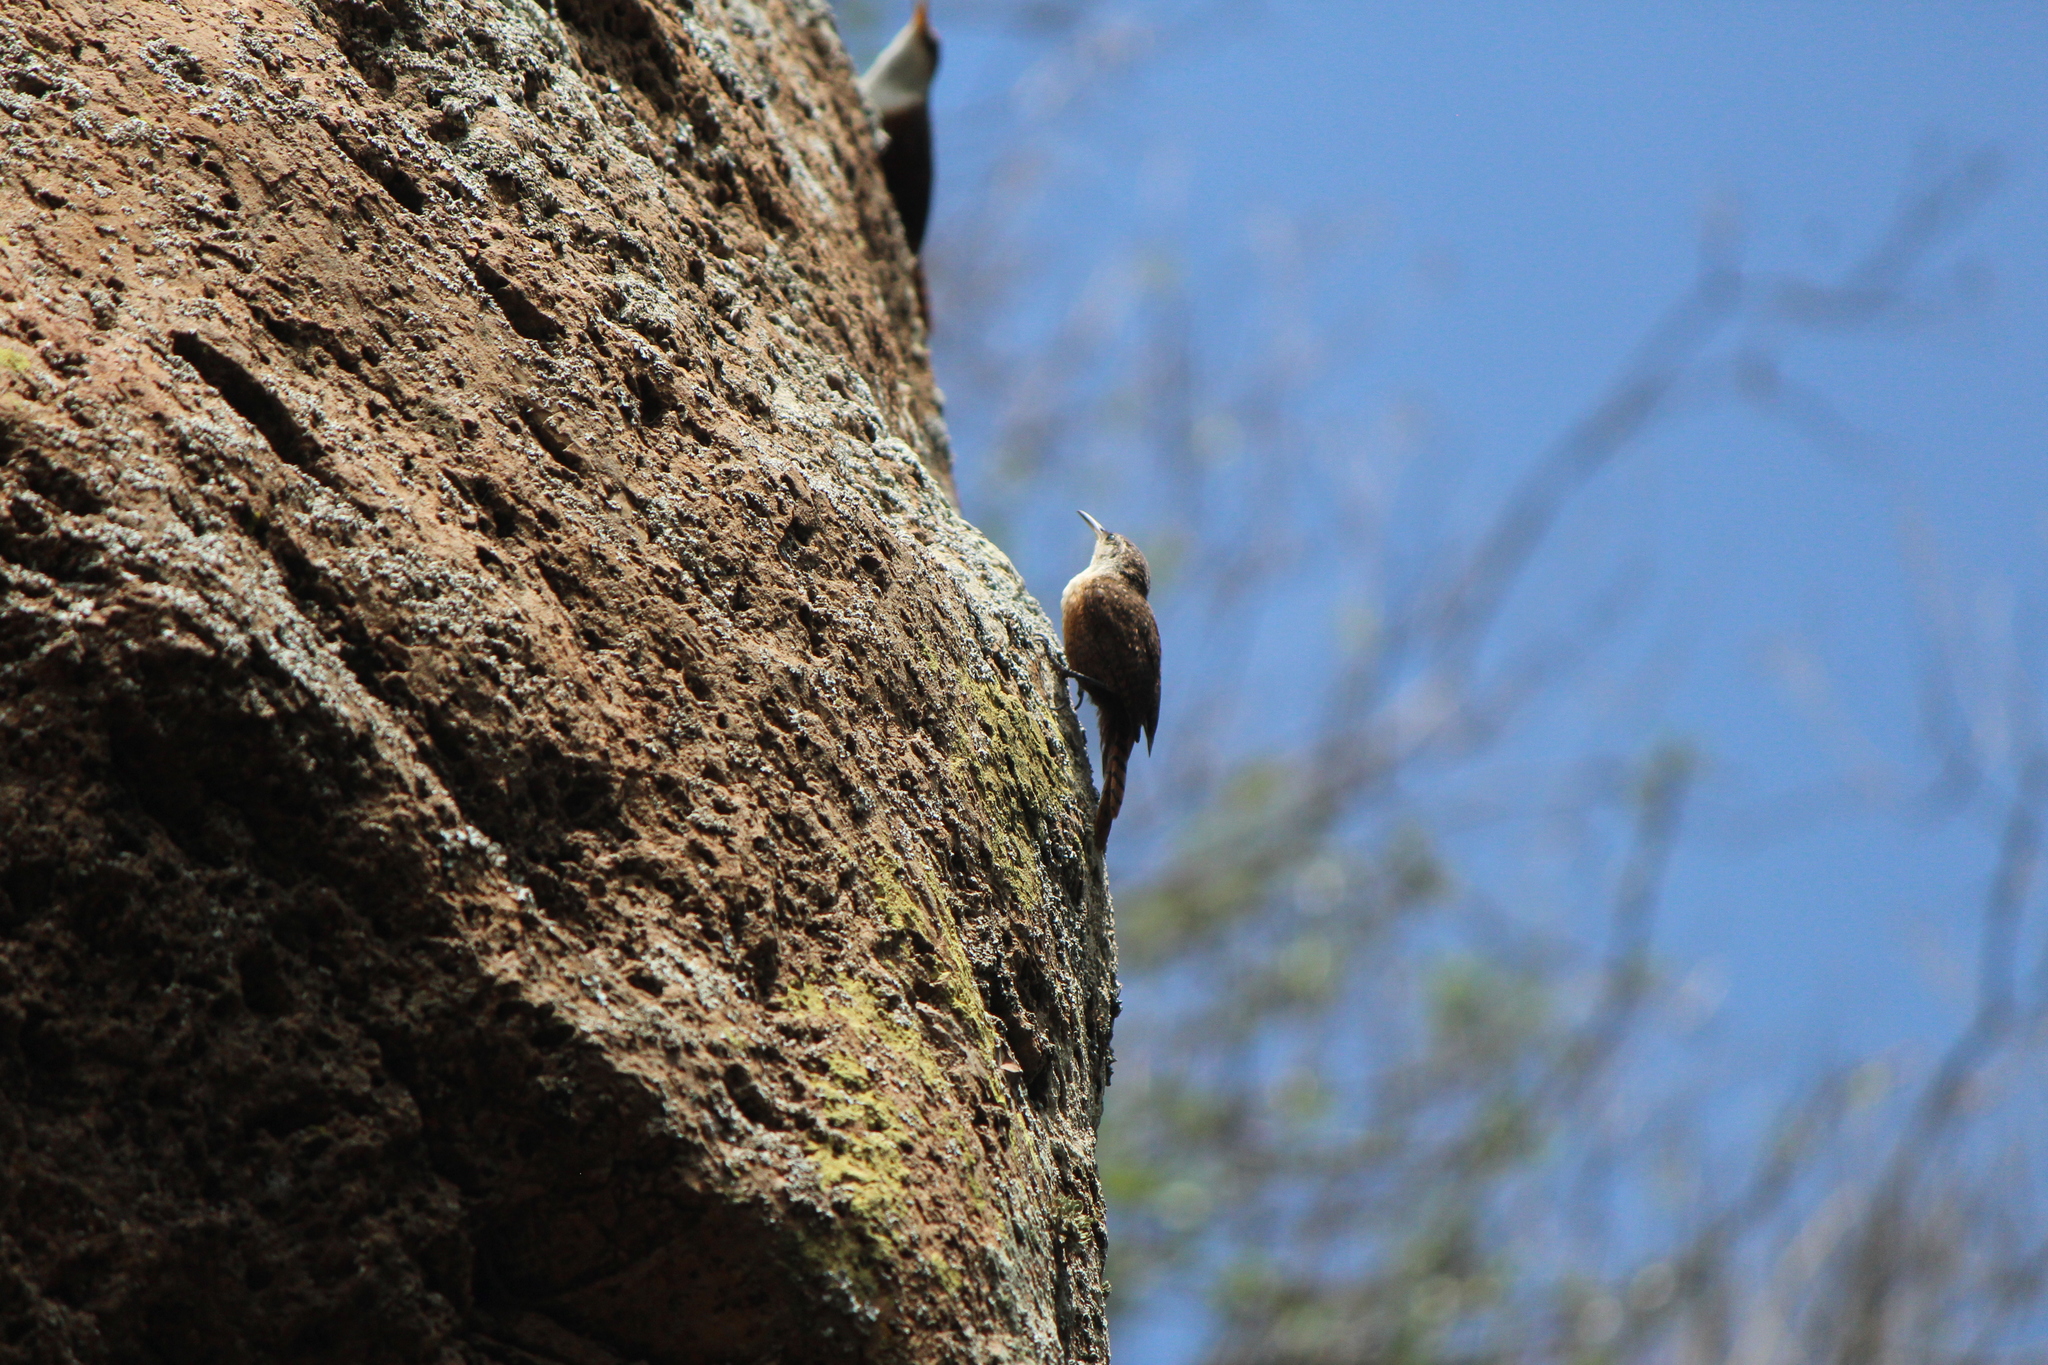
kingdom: Animalia
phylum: Chordata
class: Aves
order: Passeriformes
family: Troglodytidae
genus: Catherpes
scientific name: Catherpes mexicanus
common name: Canyon wren
